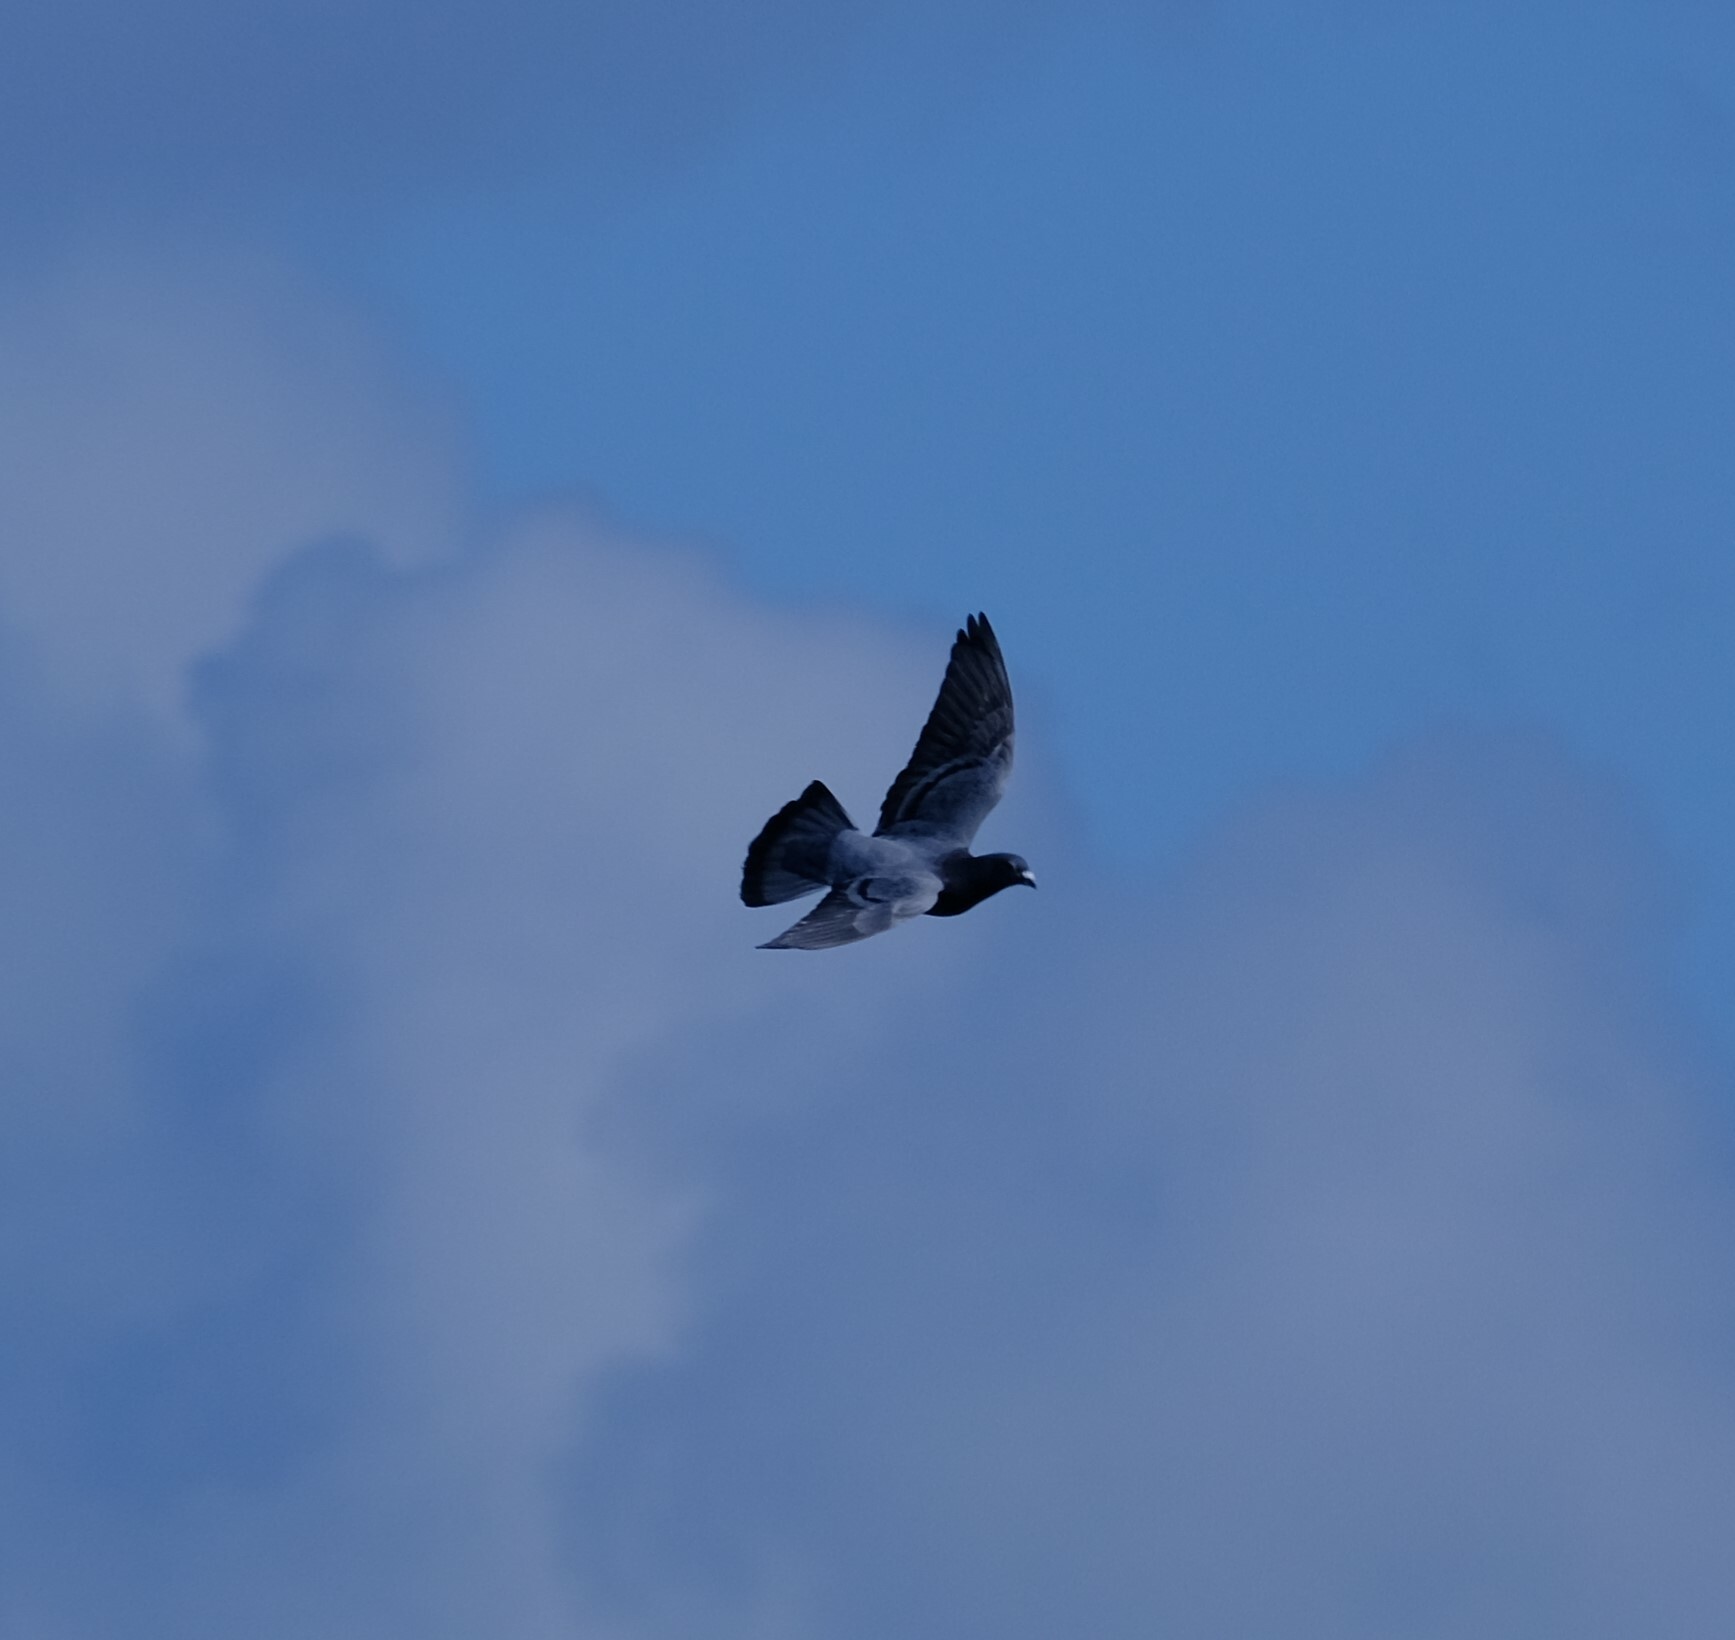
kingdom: Animalia
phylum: Chordata
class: Aves
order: Columbiformes
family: Columbidae
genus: Columba
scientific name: Columba livia
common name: Rock pigeon
